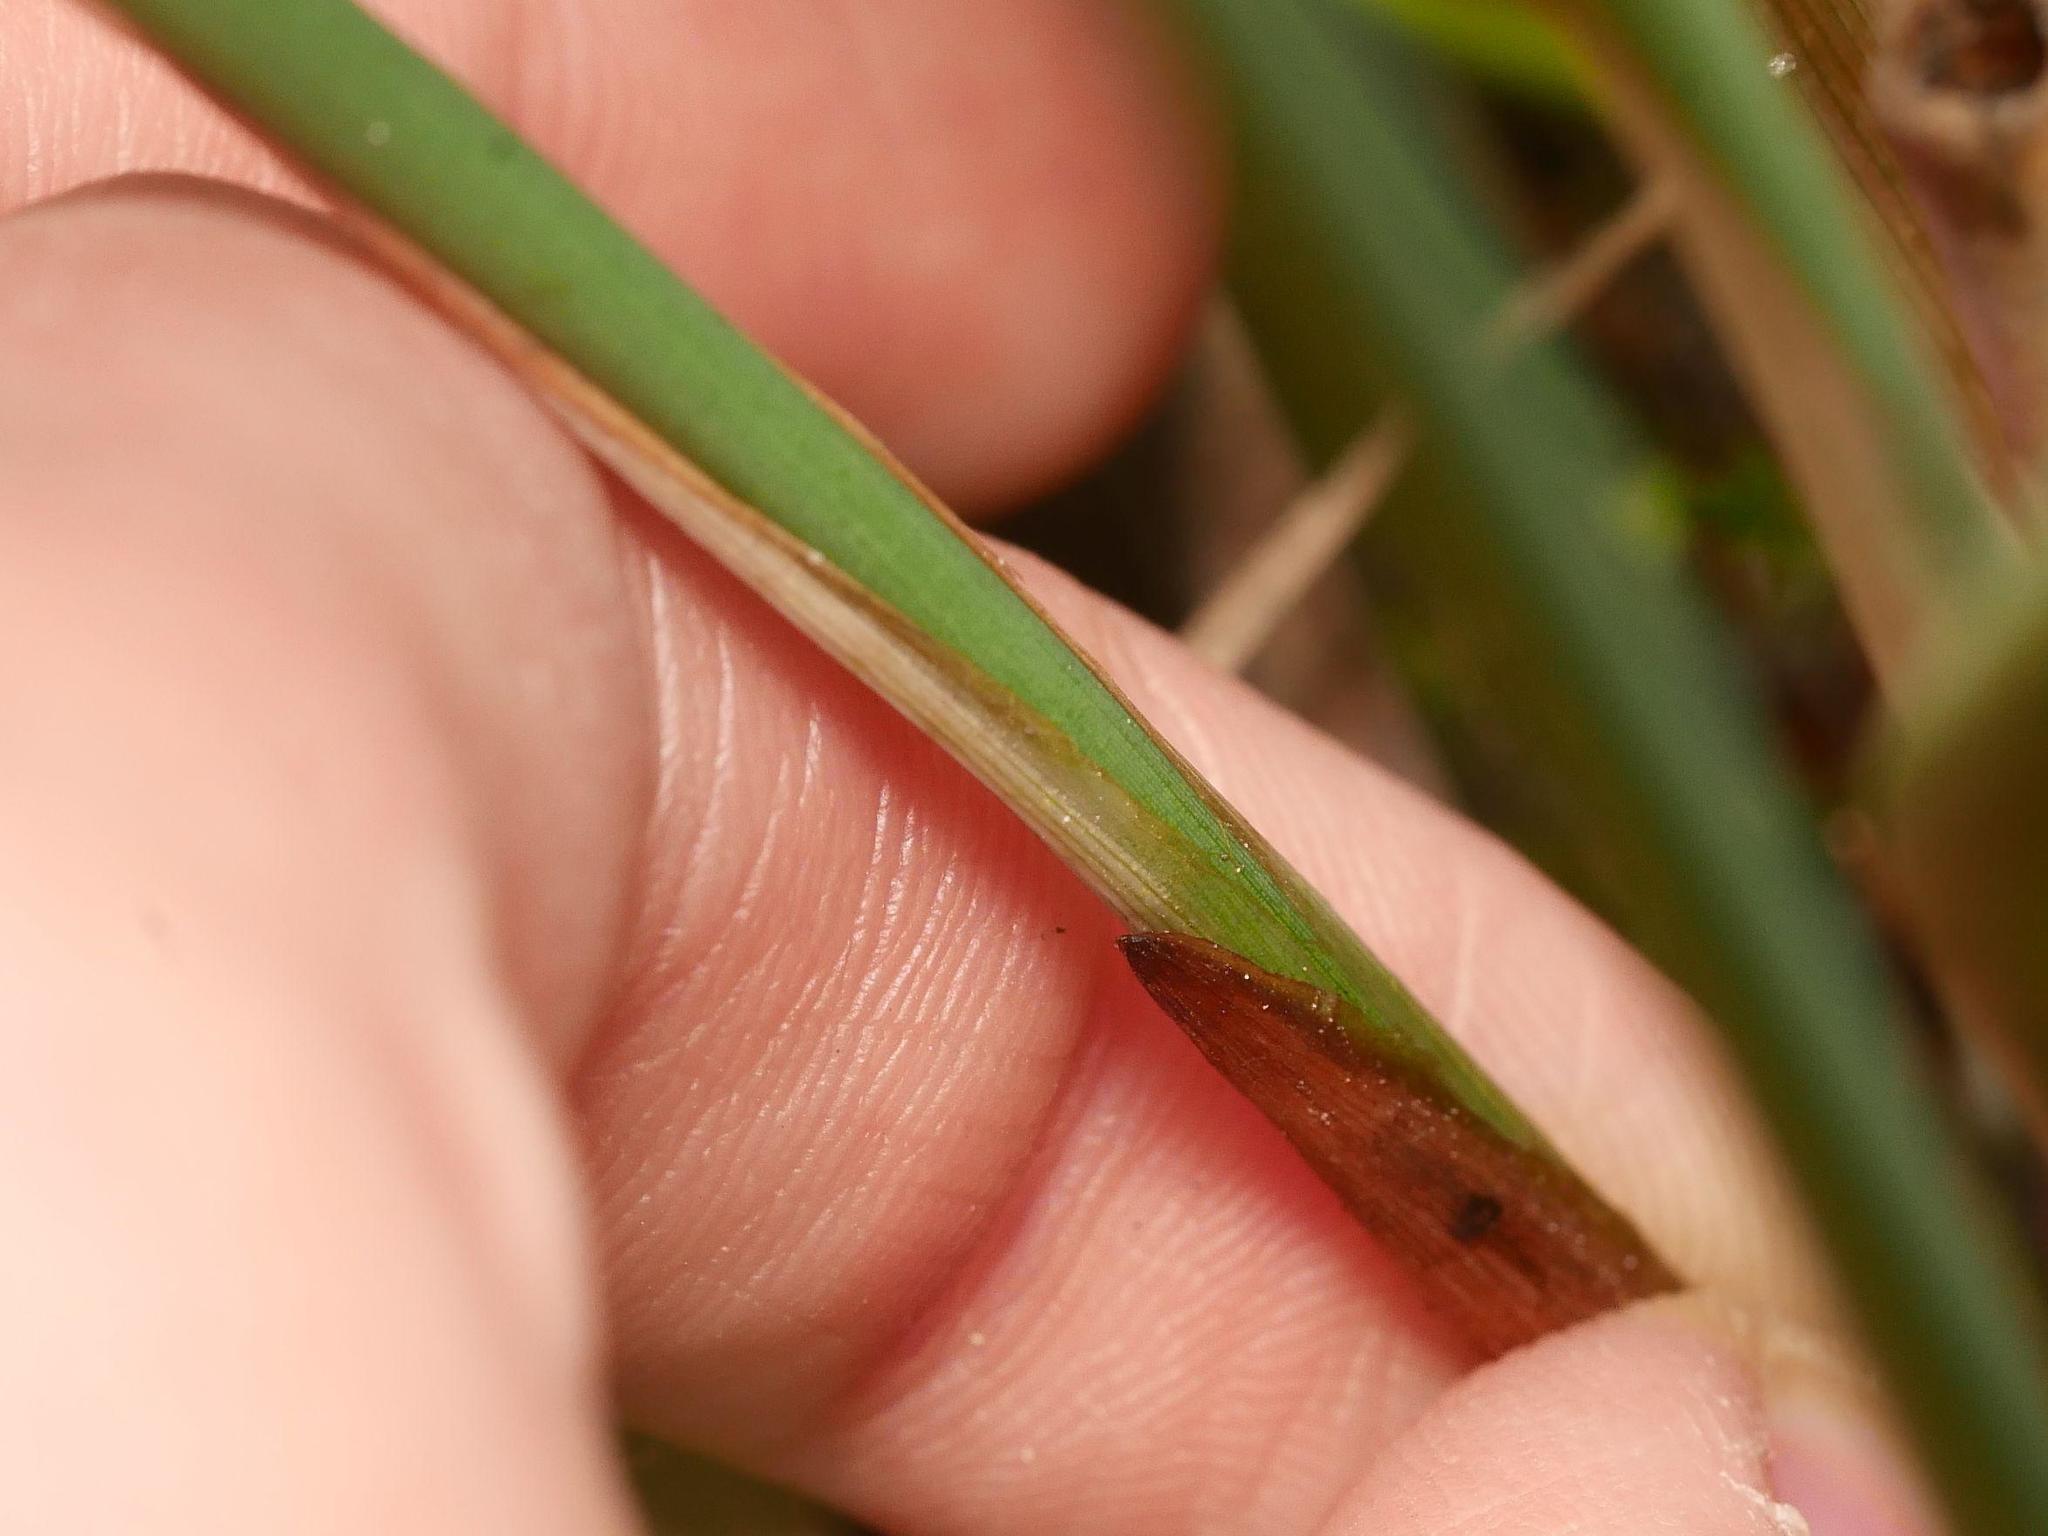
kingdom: Plantae
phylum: Tracheophyta
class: Liliopsida
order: Poales
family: Cyperaceae
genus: Schoenoplectus
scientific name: Schoenoplectus tabernaemontani
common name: Grey club-rush
